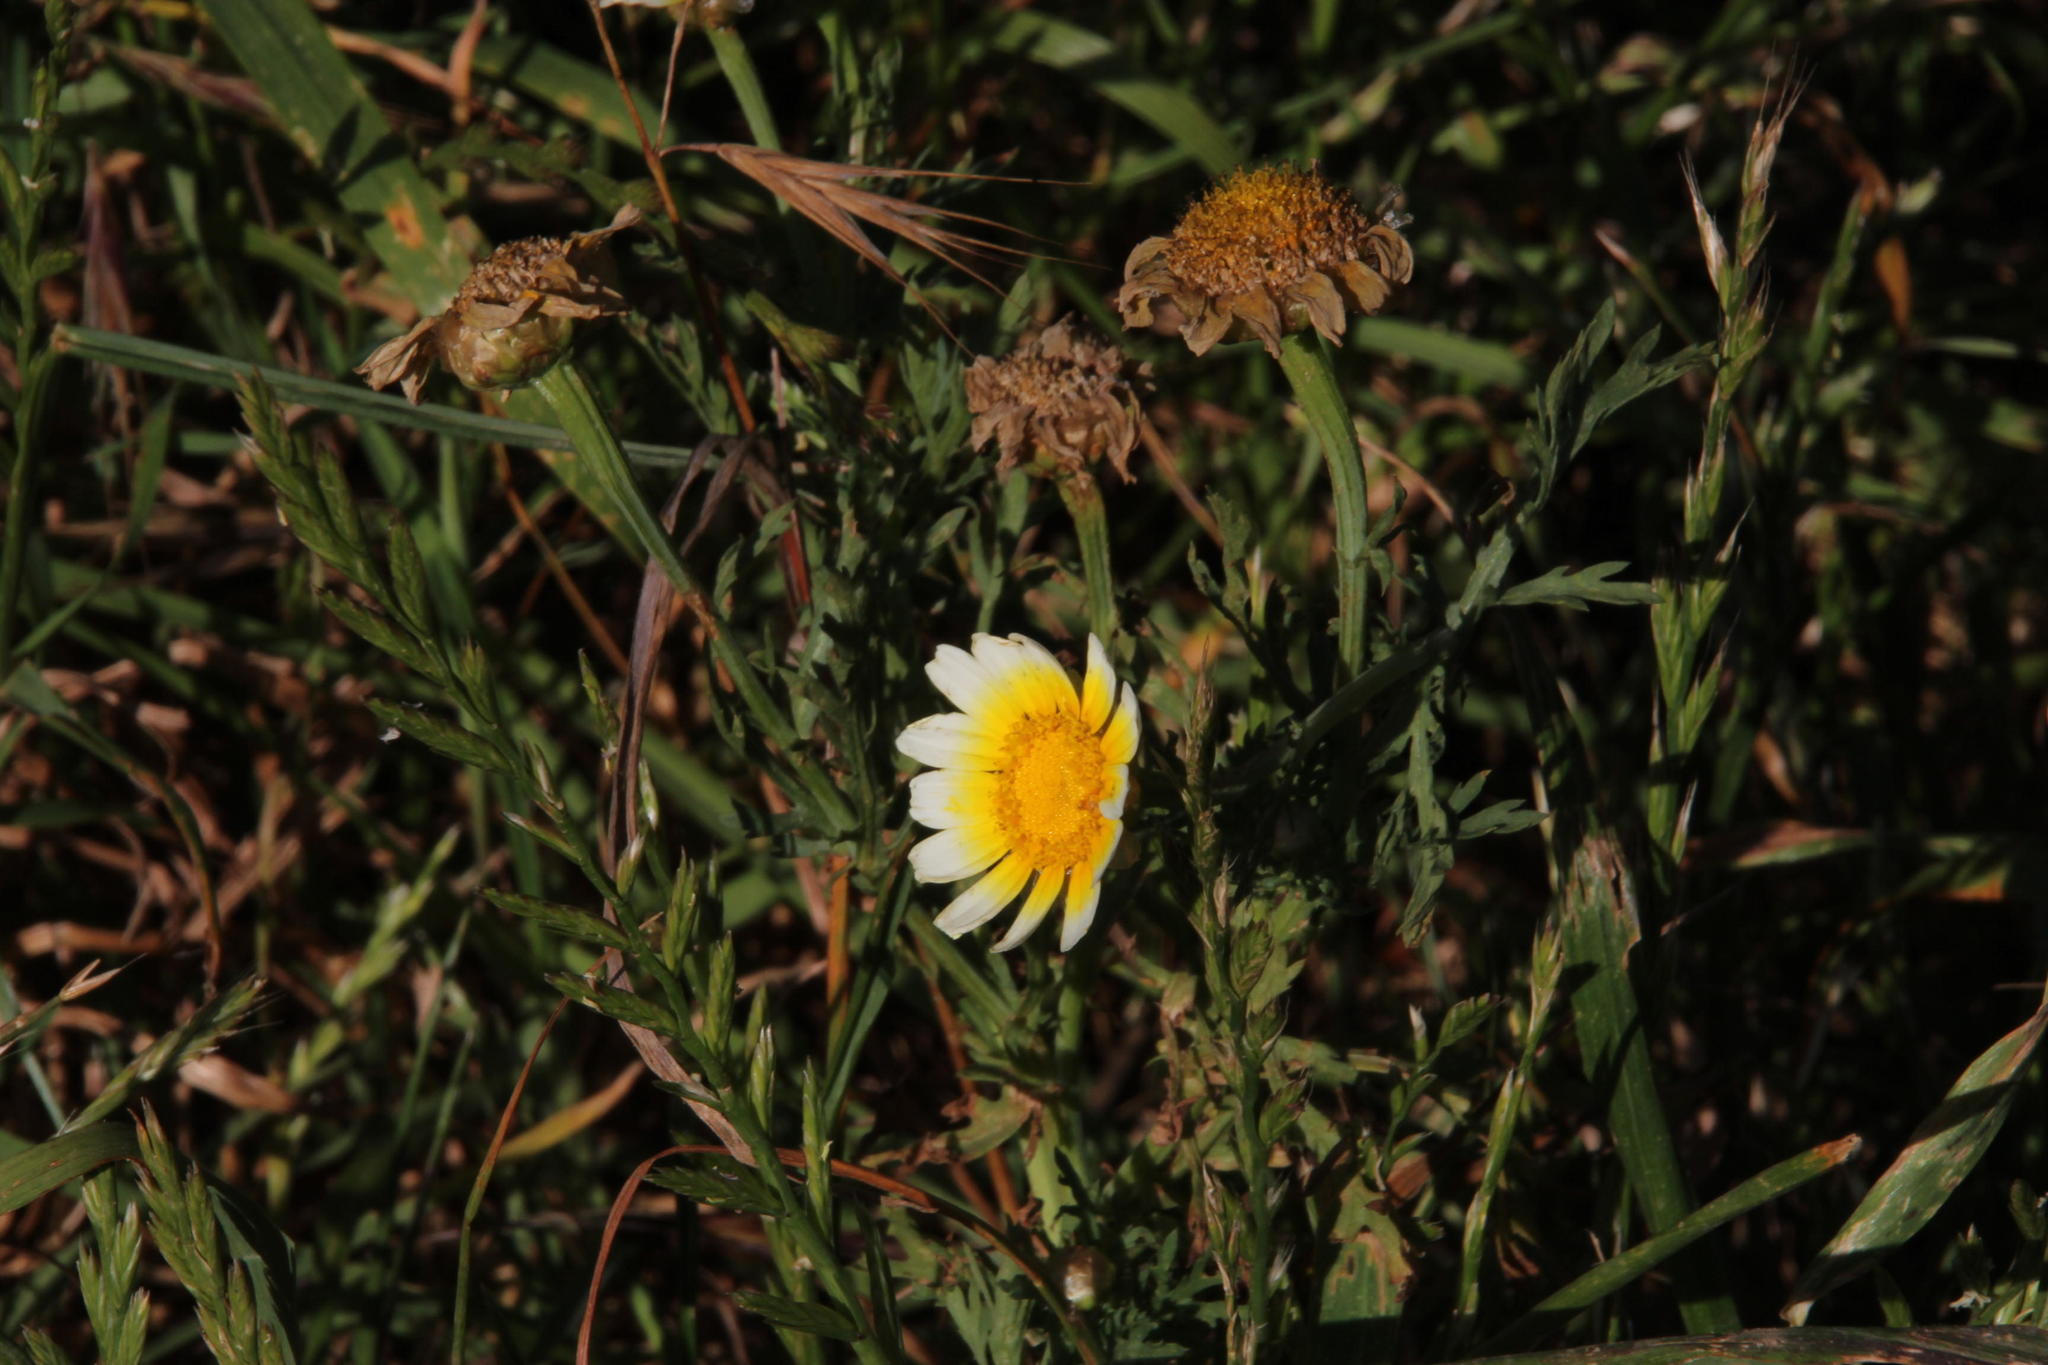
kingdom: Plantae
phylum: Tracheophyta
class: Magnoliopsida
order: Asterales
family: Asteraceae
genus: Glebionis
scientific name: Glebionis coronaria
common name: Crowndaisy
